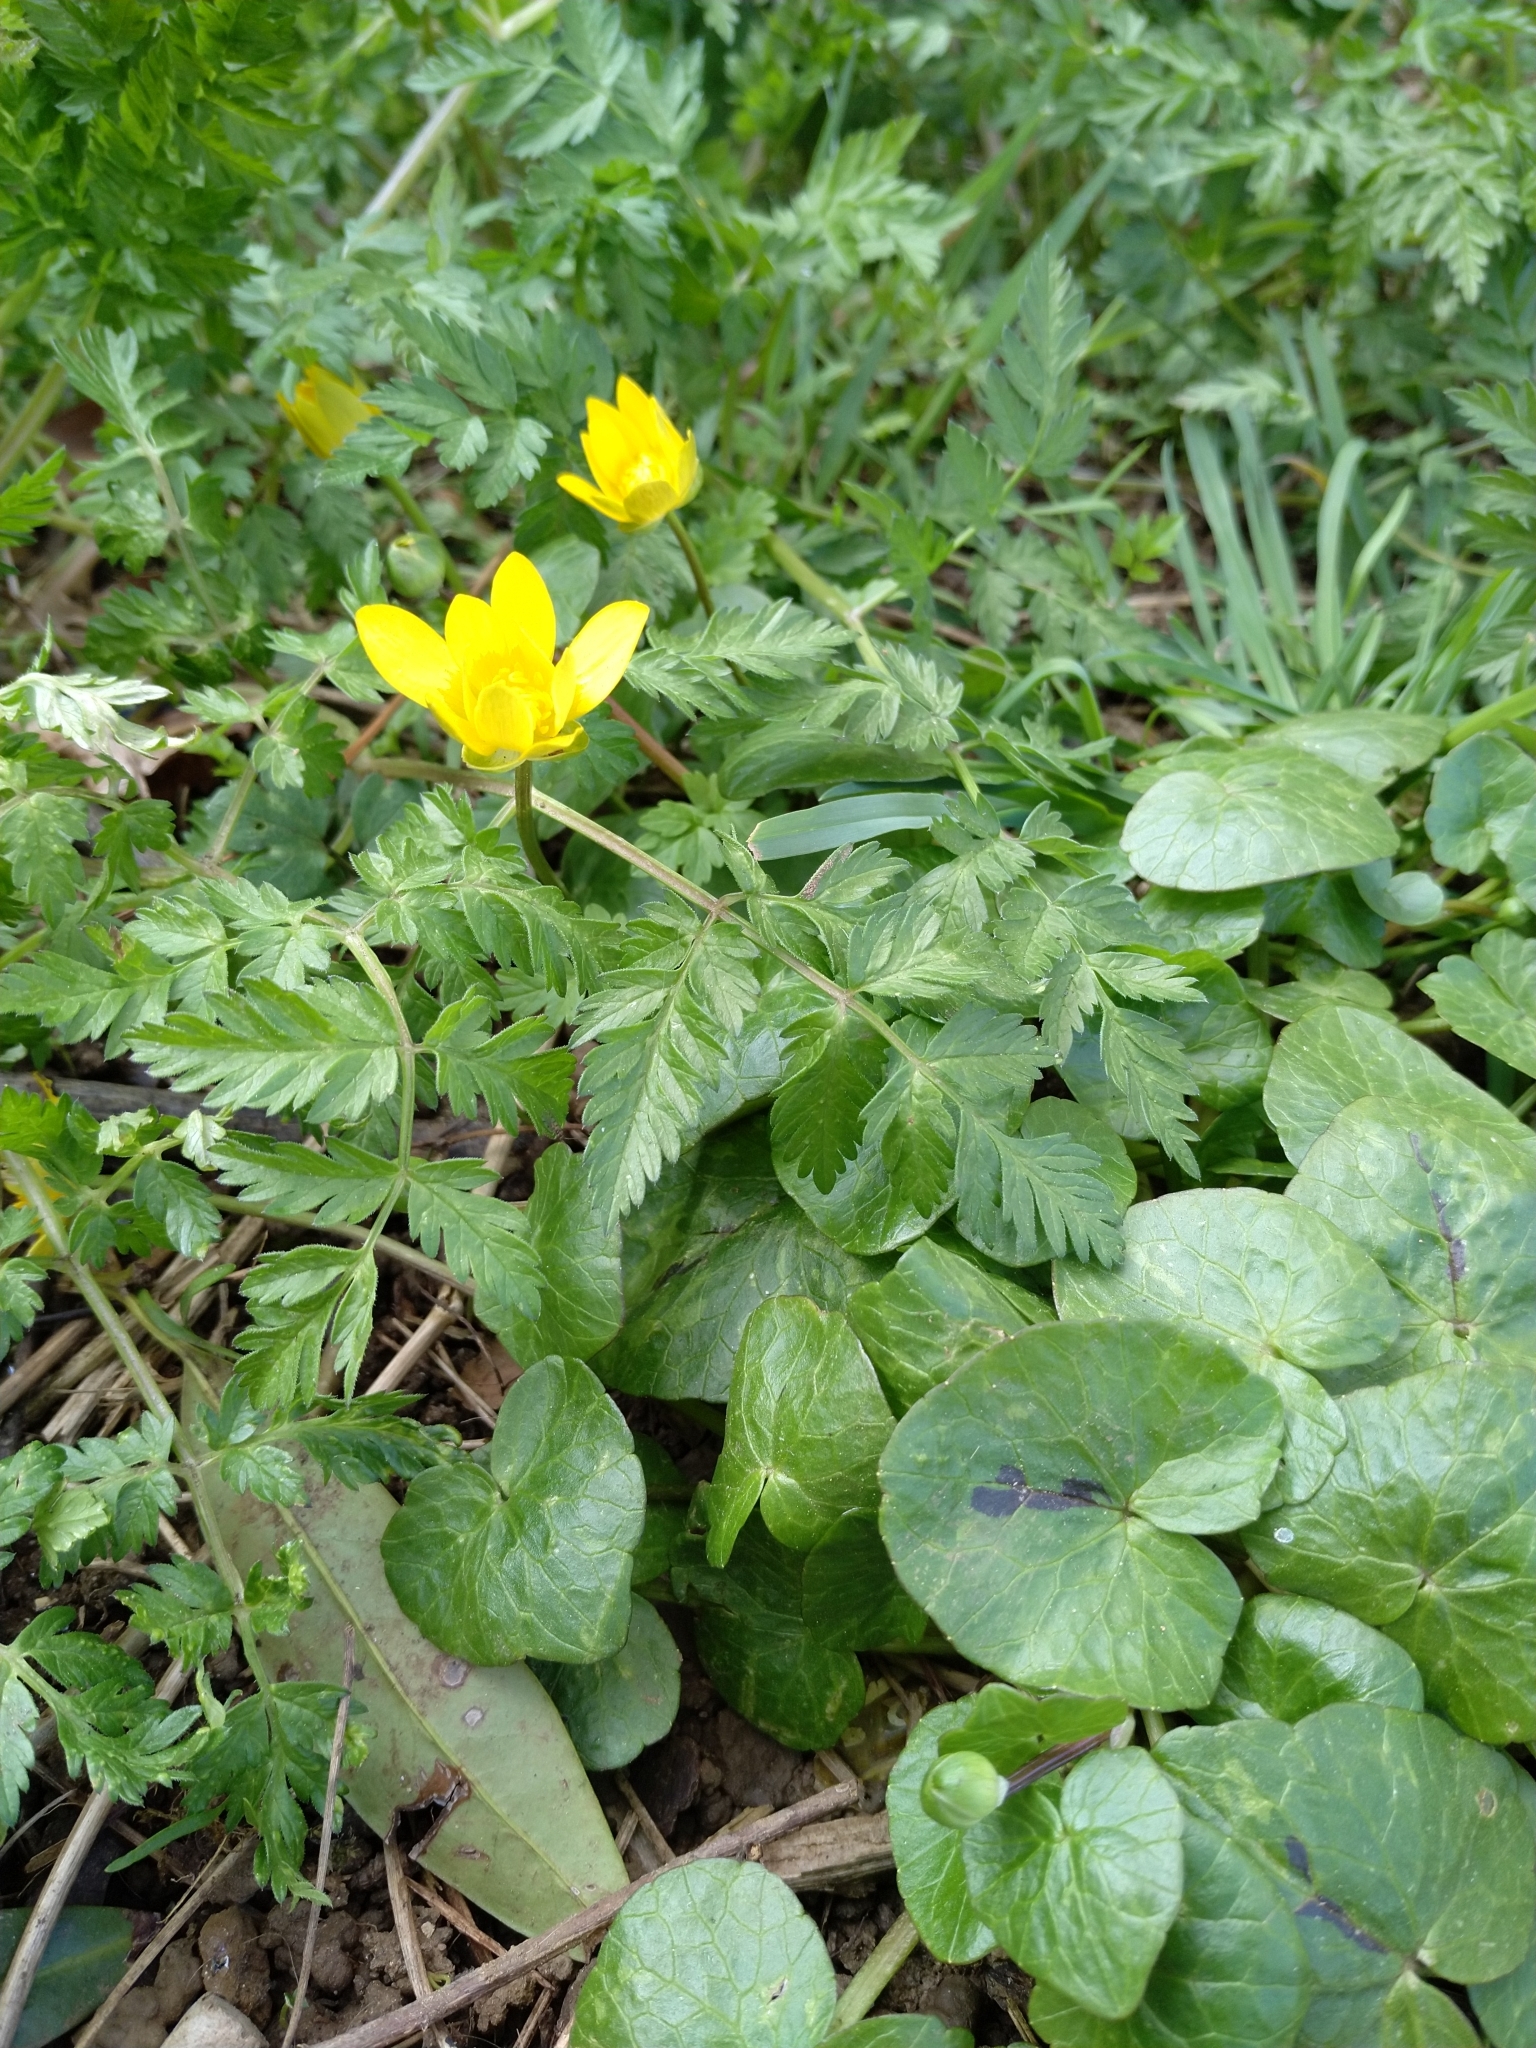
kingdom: Plantae
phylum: Tracheophyta
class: Magnoliopsida
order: Ranunculales
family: Ranunculaceae
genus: Ficaria
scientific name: Ficaria verna
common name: Lesser celandine
